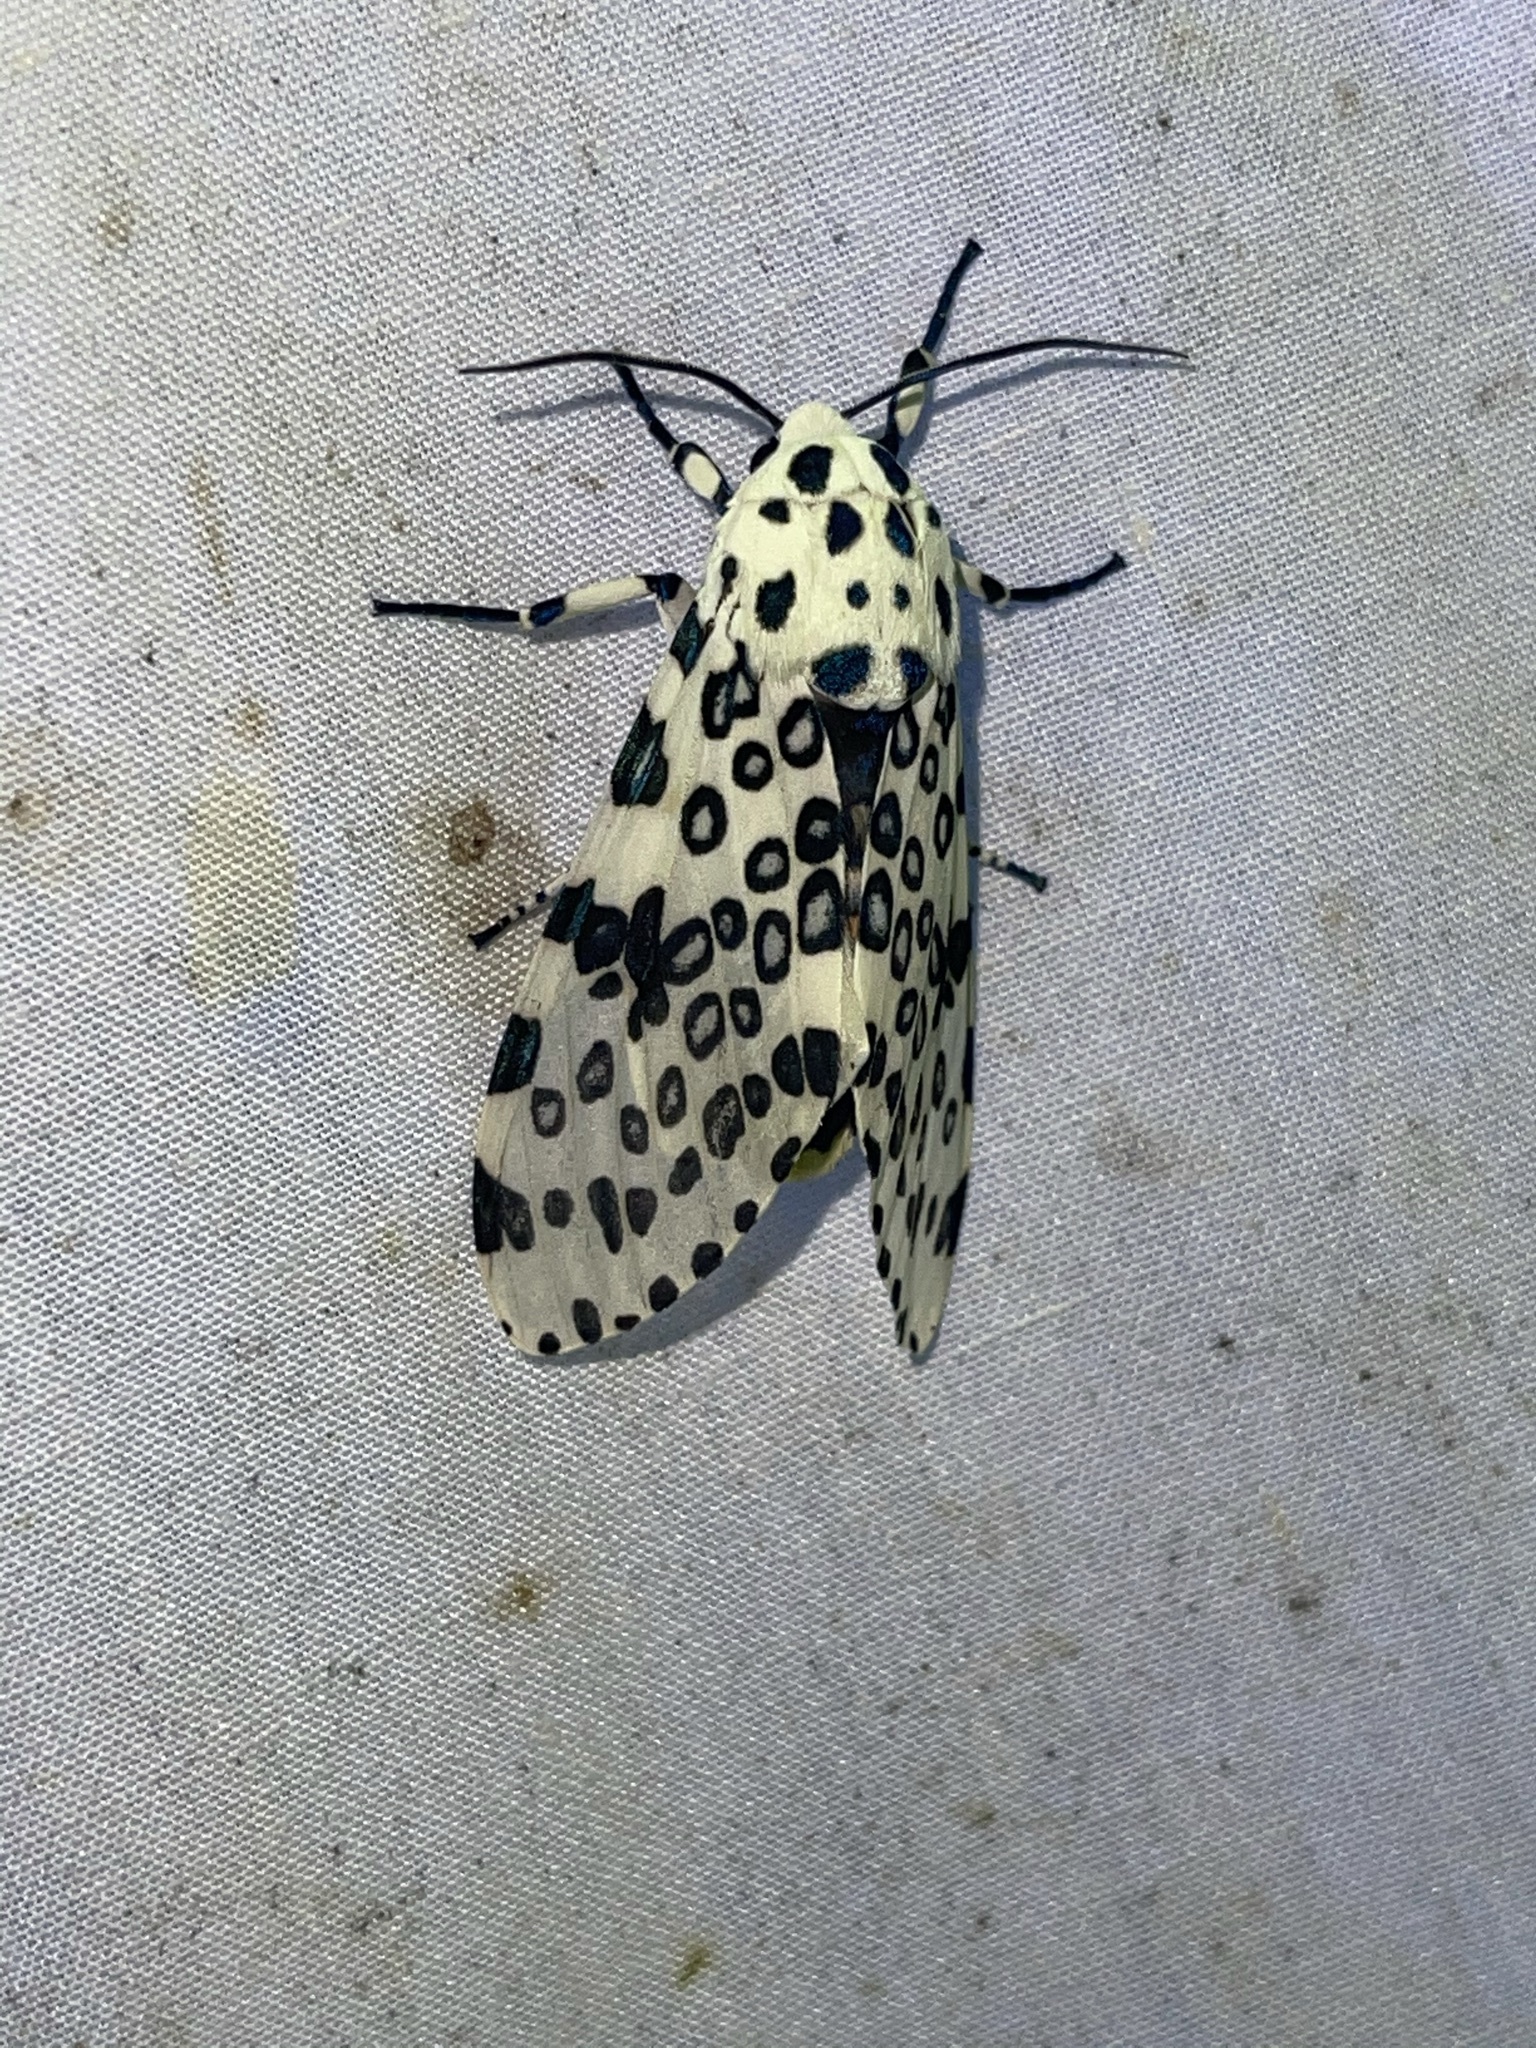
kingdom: Animalia
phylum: Arthropoda
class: Insecta
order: Lepidoptera
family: Erebidae
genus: Hypercompe
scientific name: Hypercompe scribonia
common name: Giant leopard moth
